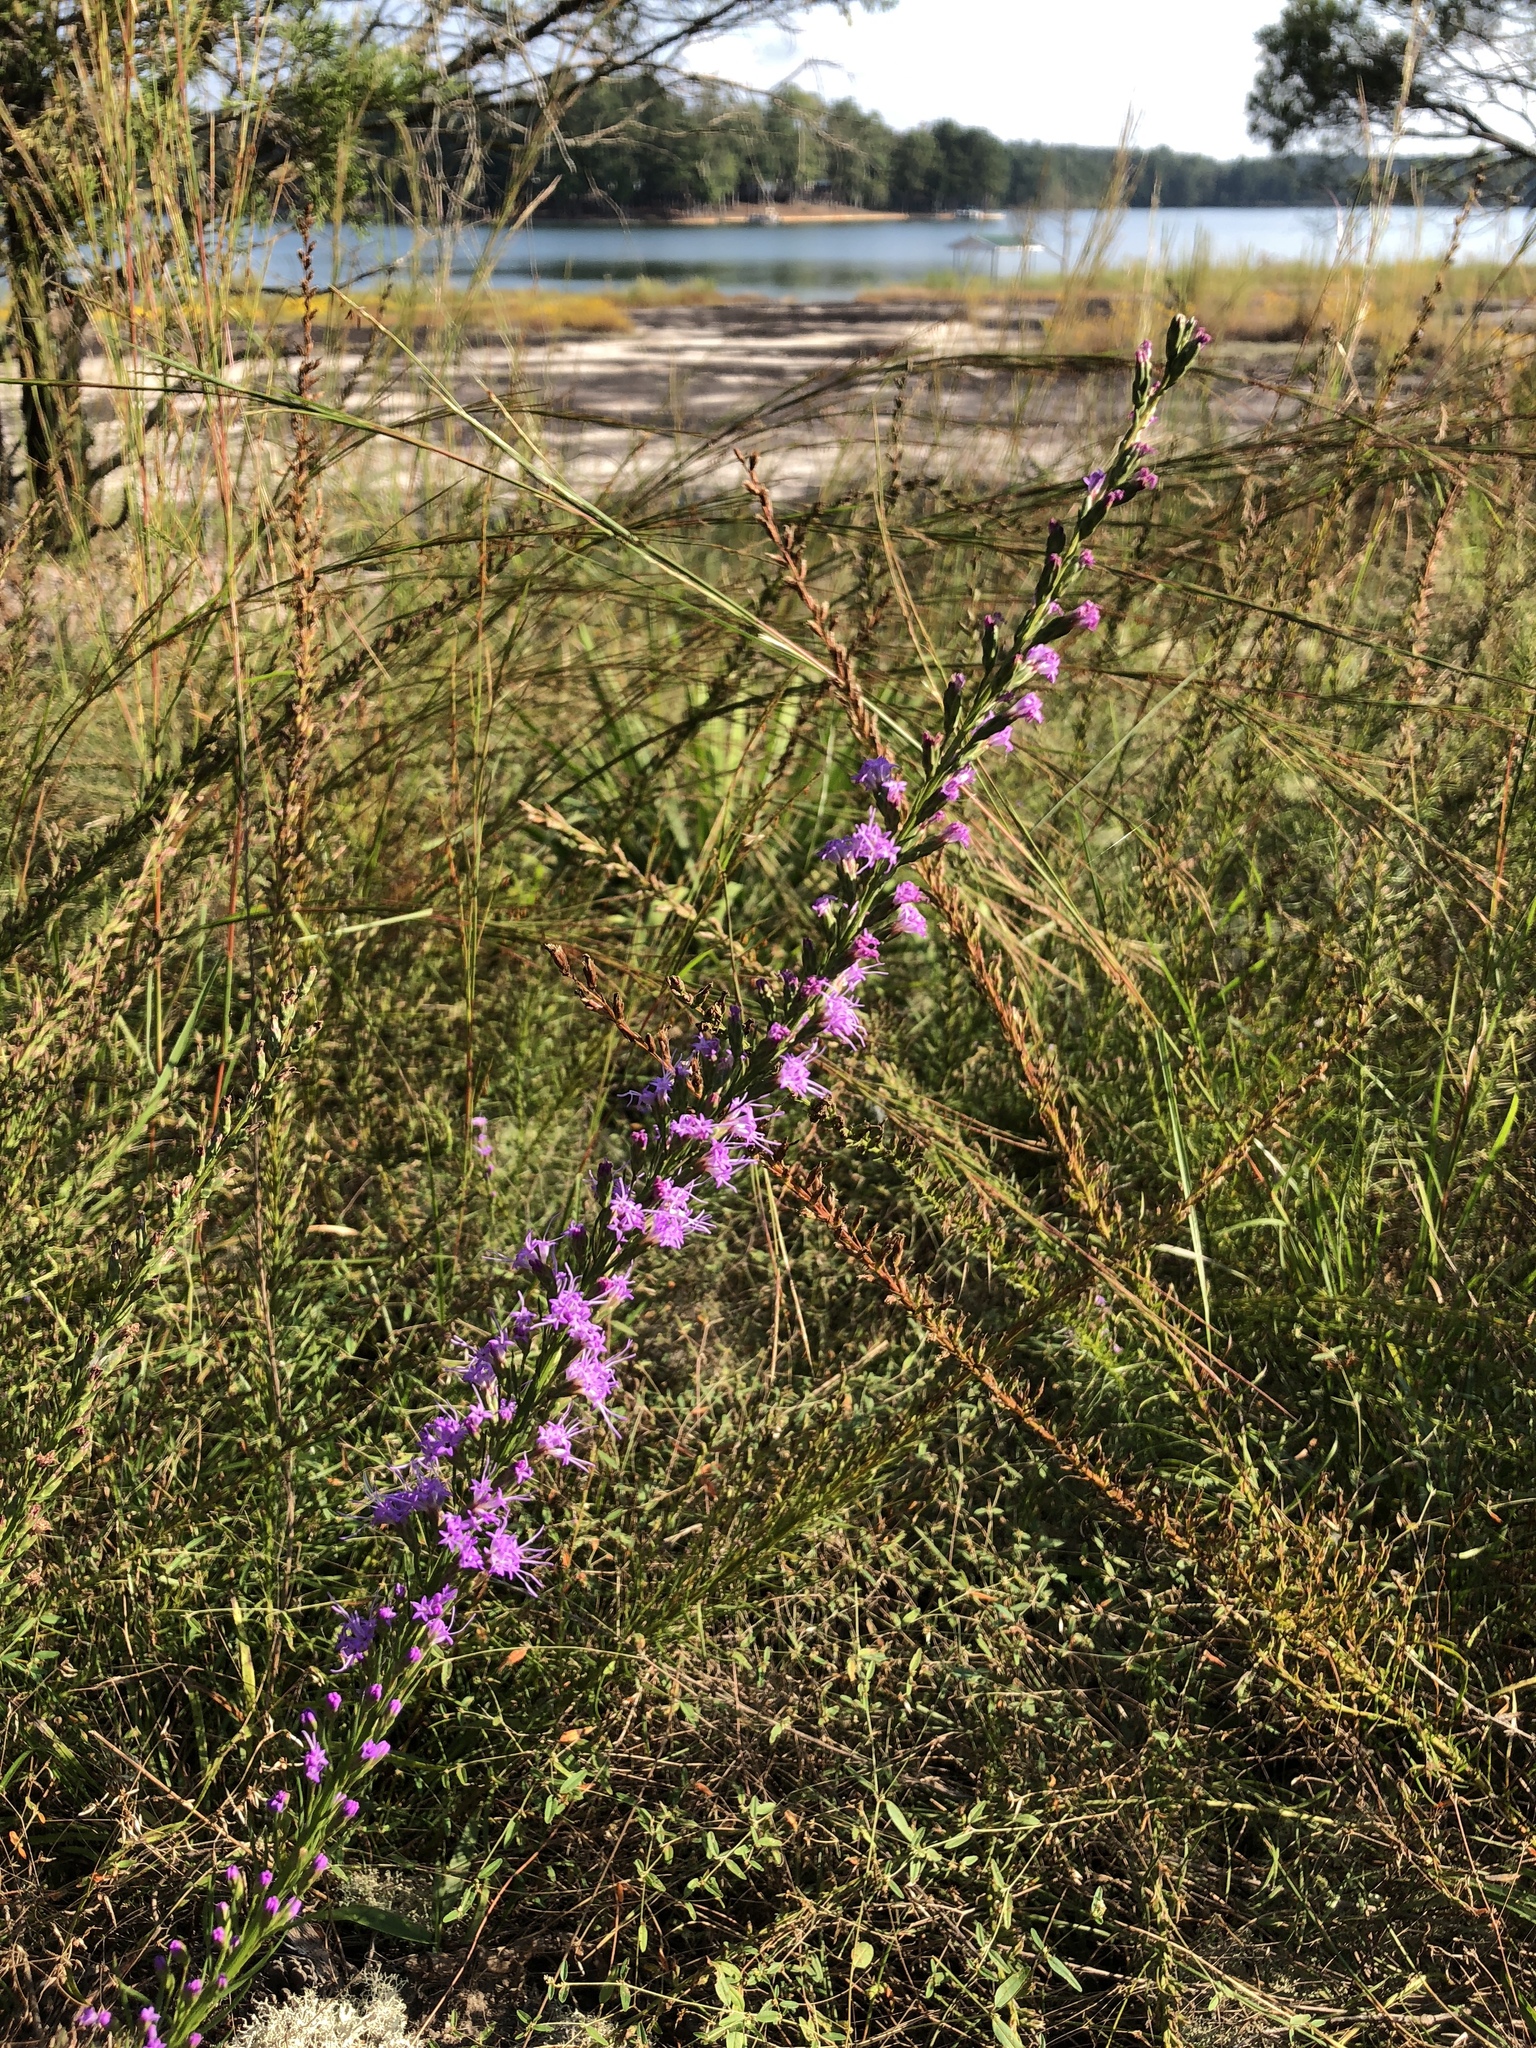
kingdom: Plantae
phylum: Tracheophyta
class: Magnoliopsida
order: Asterales
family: Asteraceae
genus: Liatris
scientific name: Liatris microcephala
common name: Small-head gayfeather
